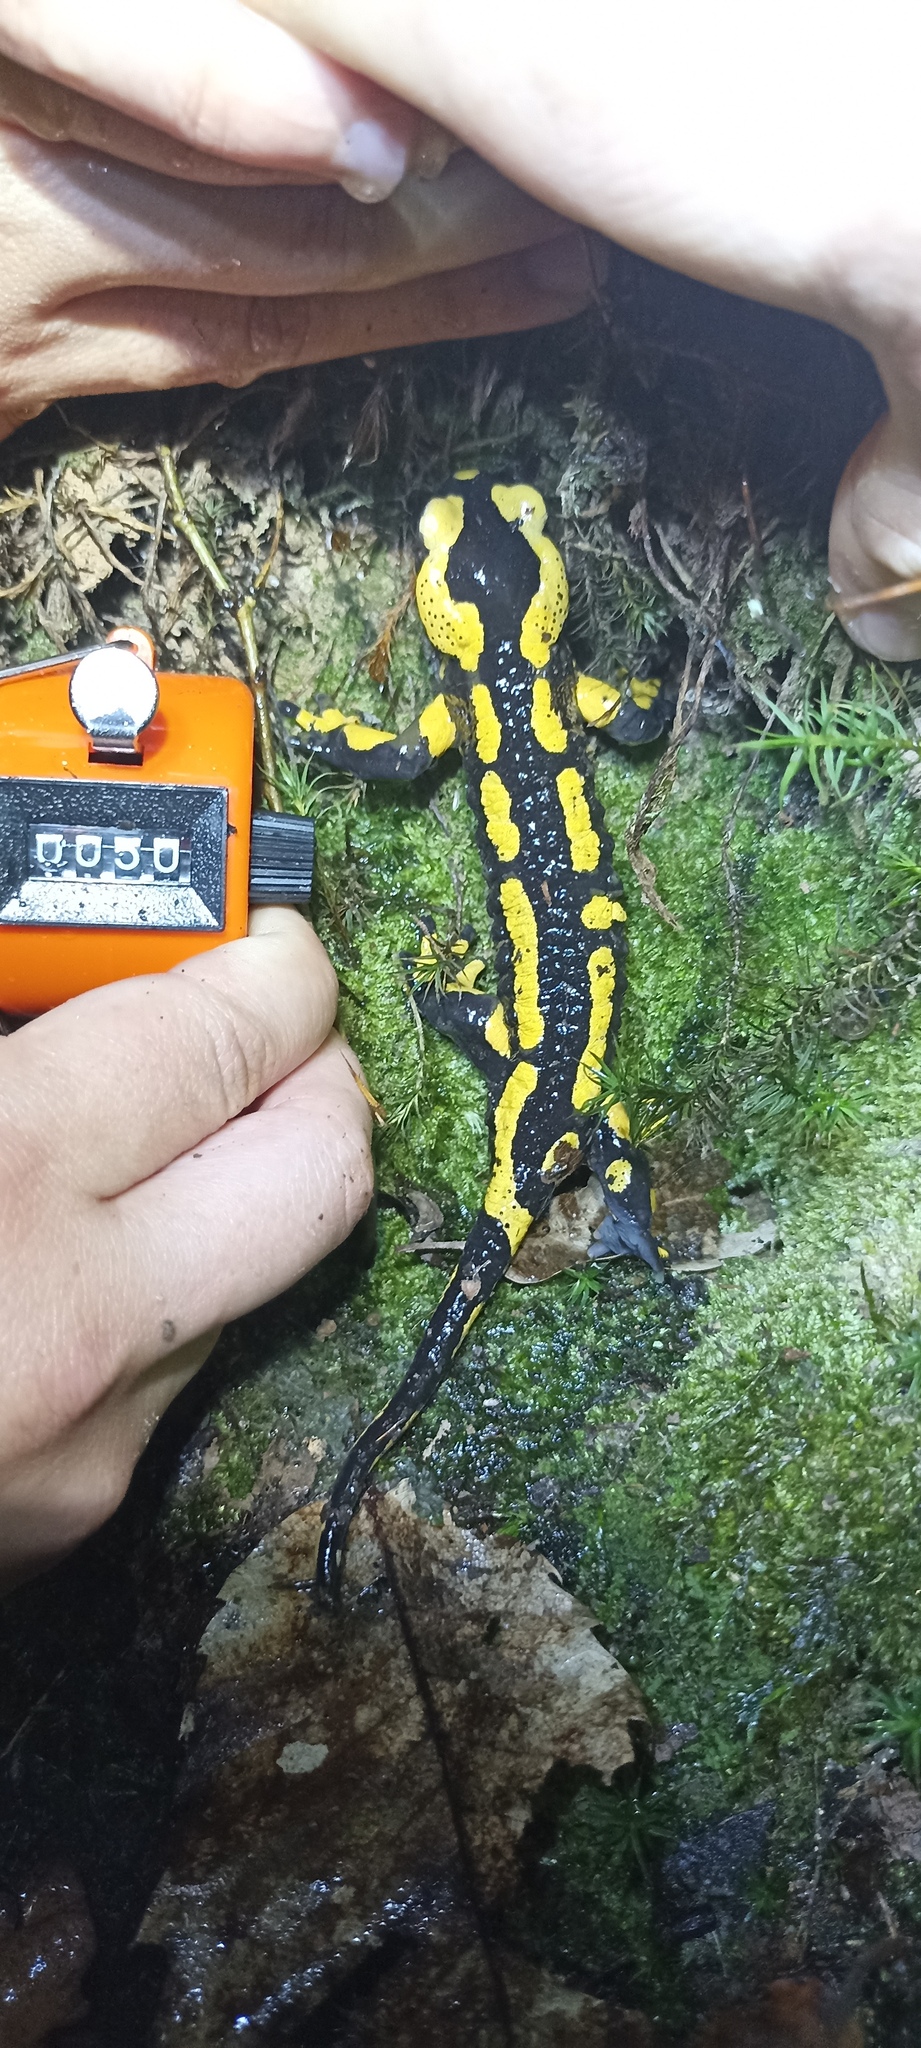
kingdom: Animalia
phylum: Chordata
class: Amphibia
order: Caudata
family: Salamandridae
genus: Salamandra
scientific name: Salamandra salamandra
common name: Fire salamander
